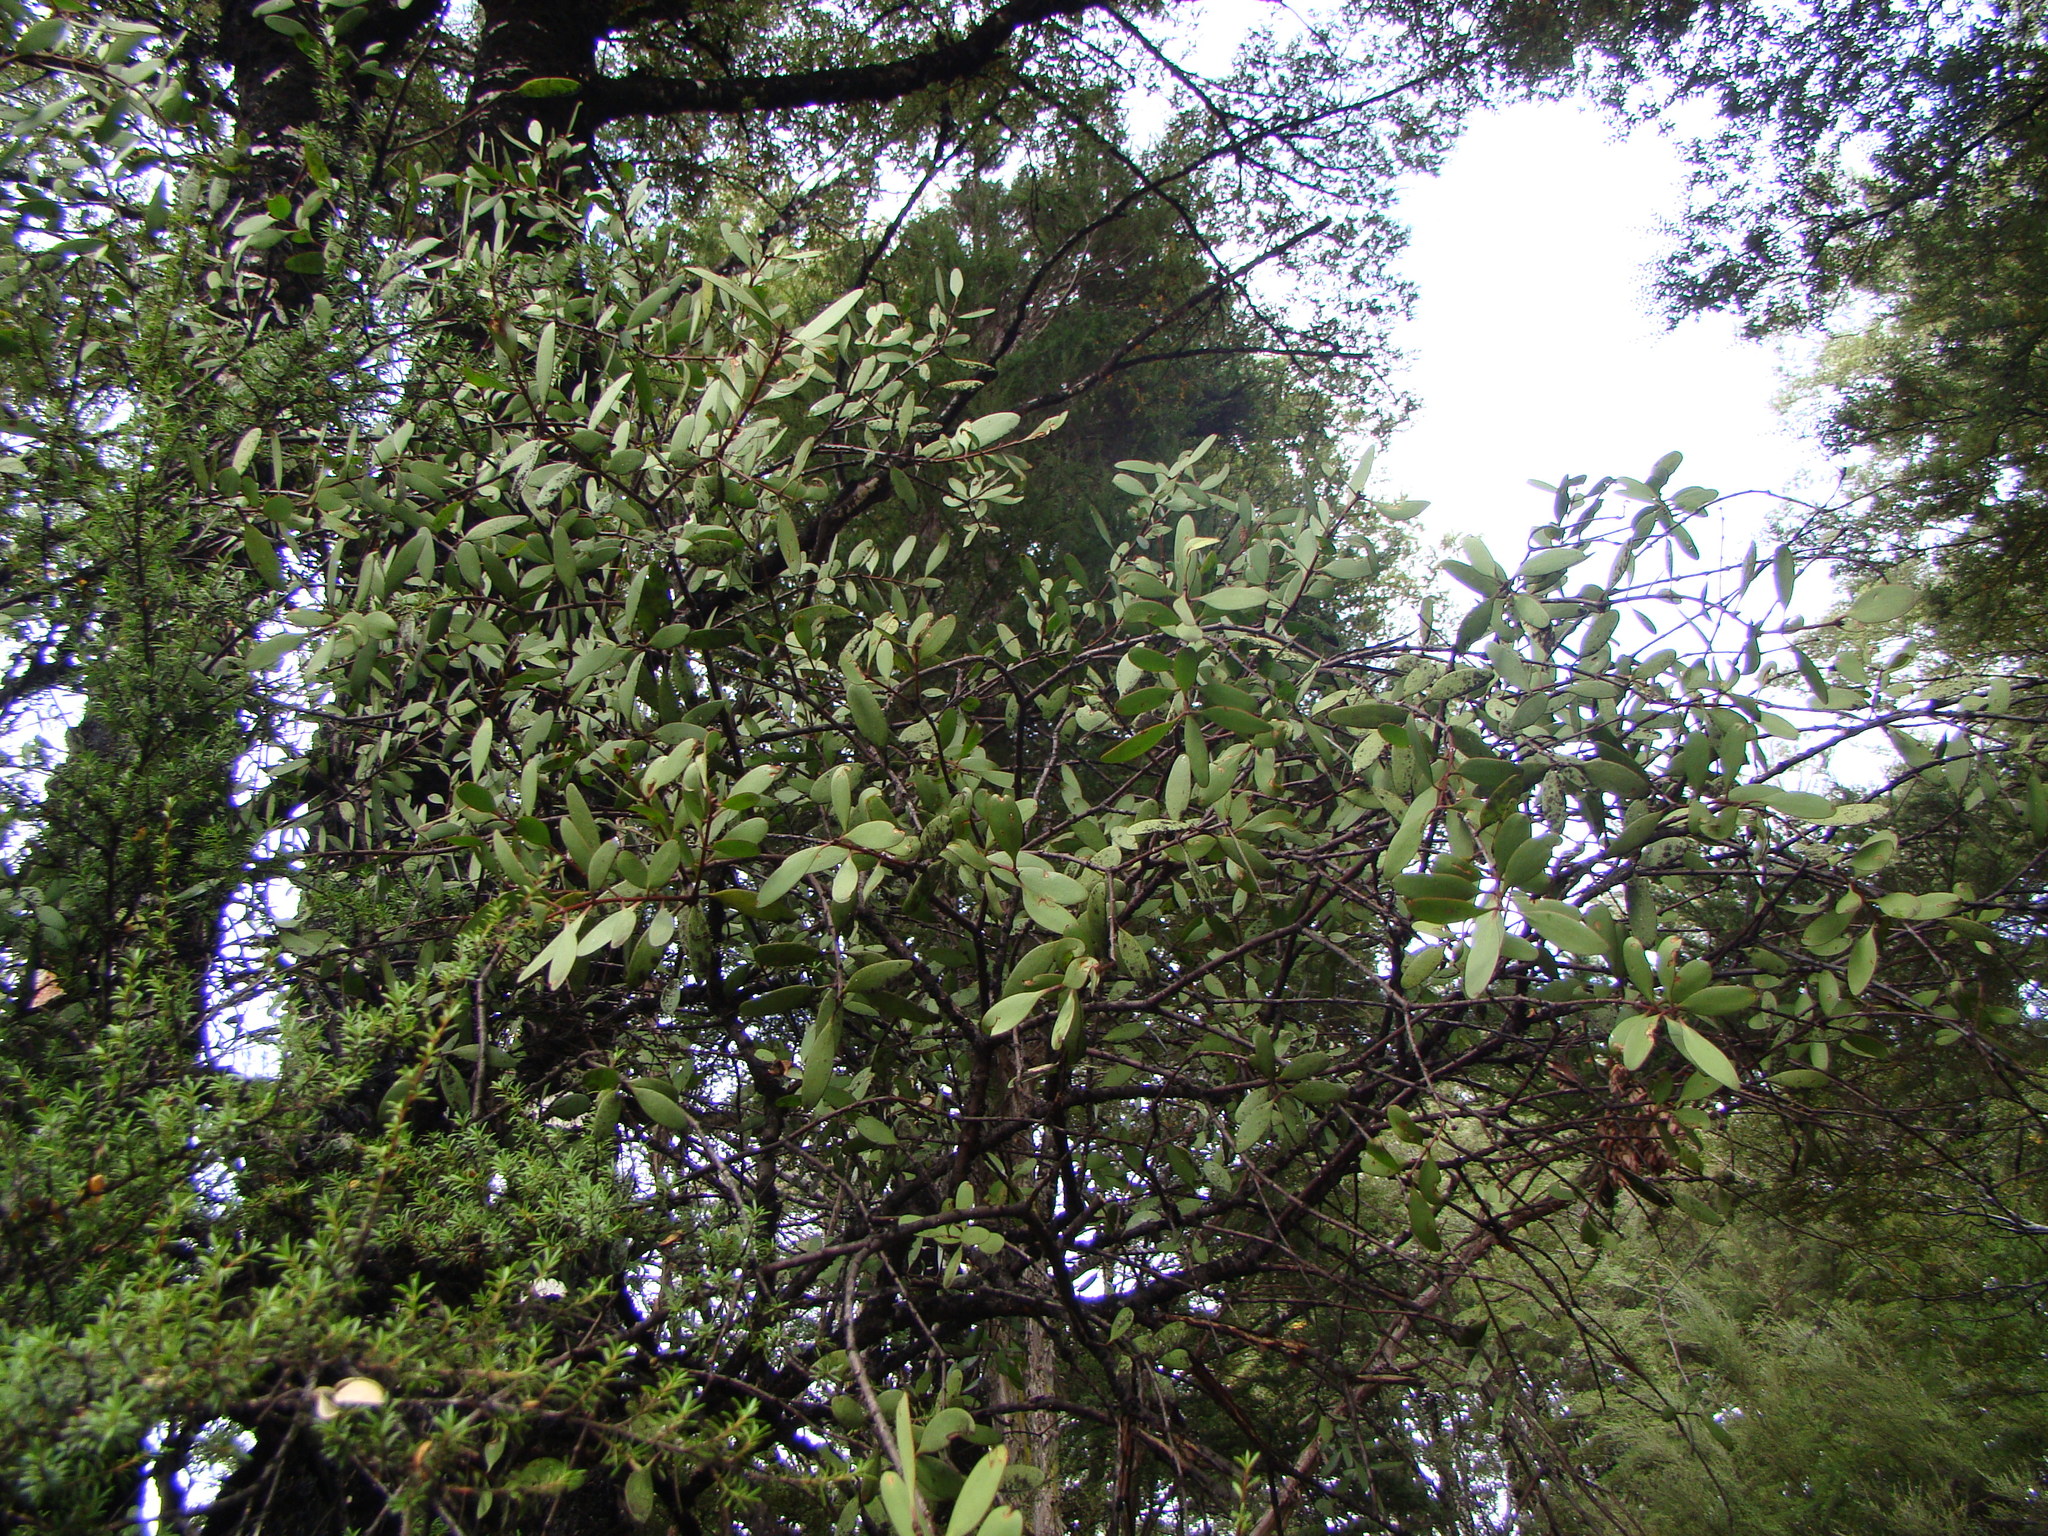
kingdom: Plantae
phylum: Tracheophyta
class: Magnoliopsida
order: Santalales
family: Loranthaceae
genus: Alepis
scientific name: Alepis flavida
